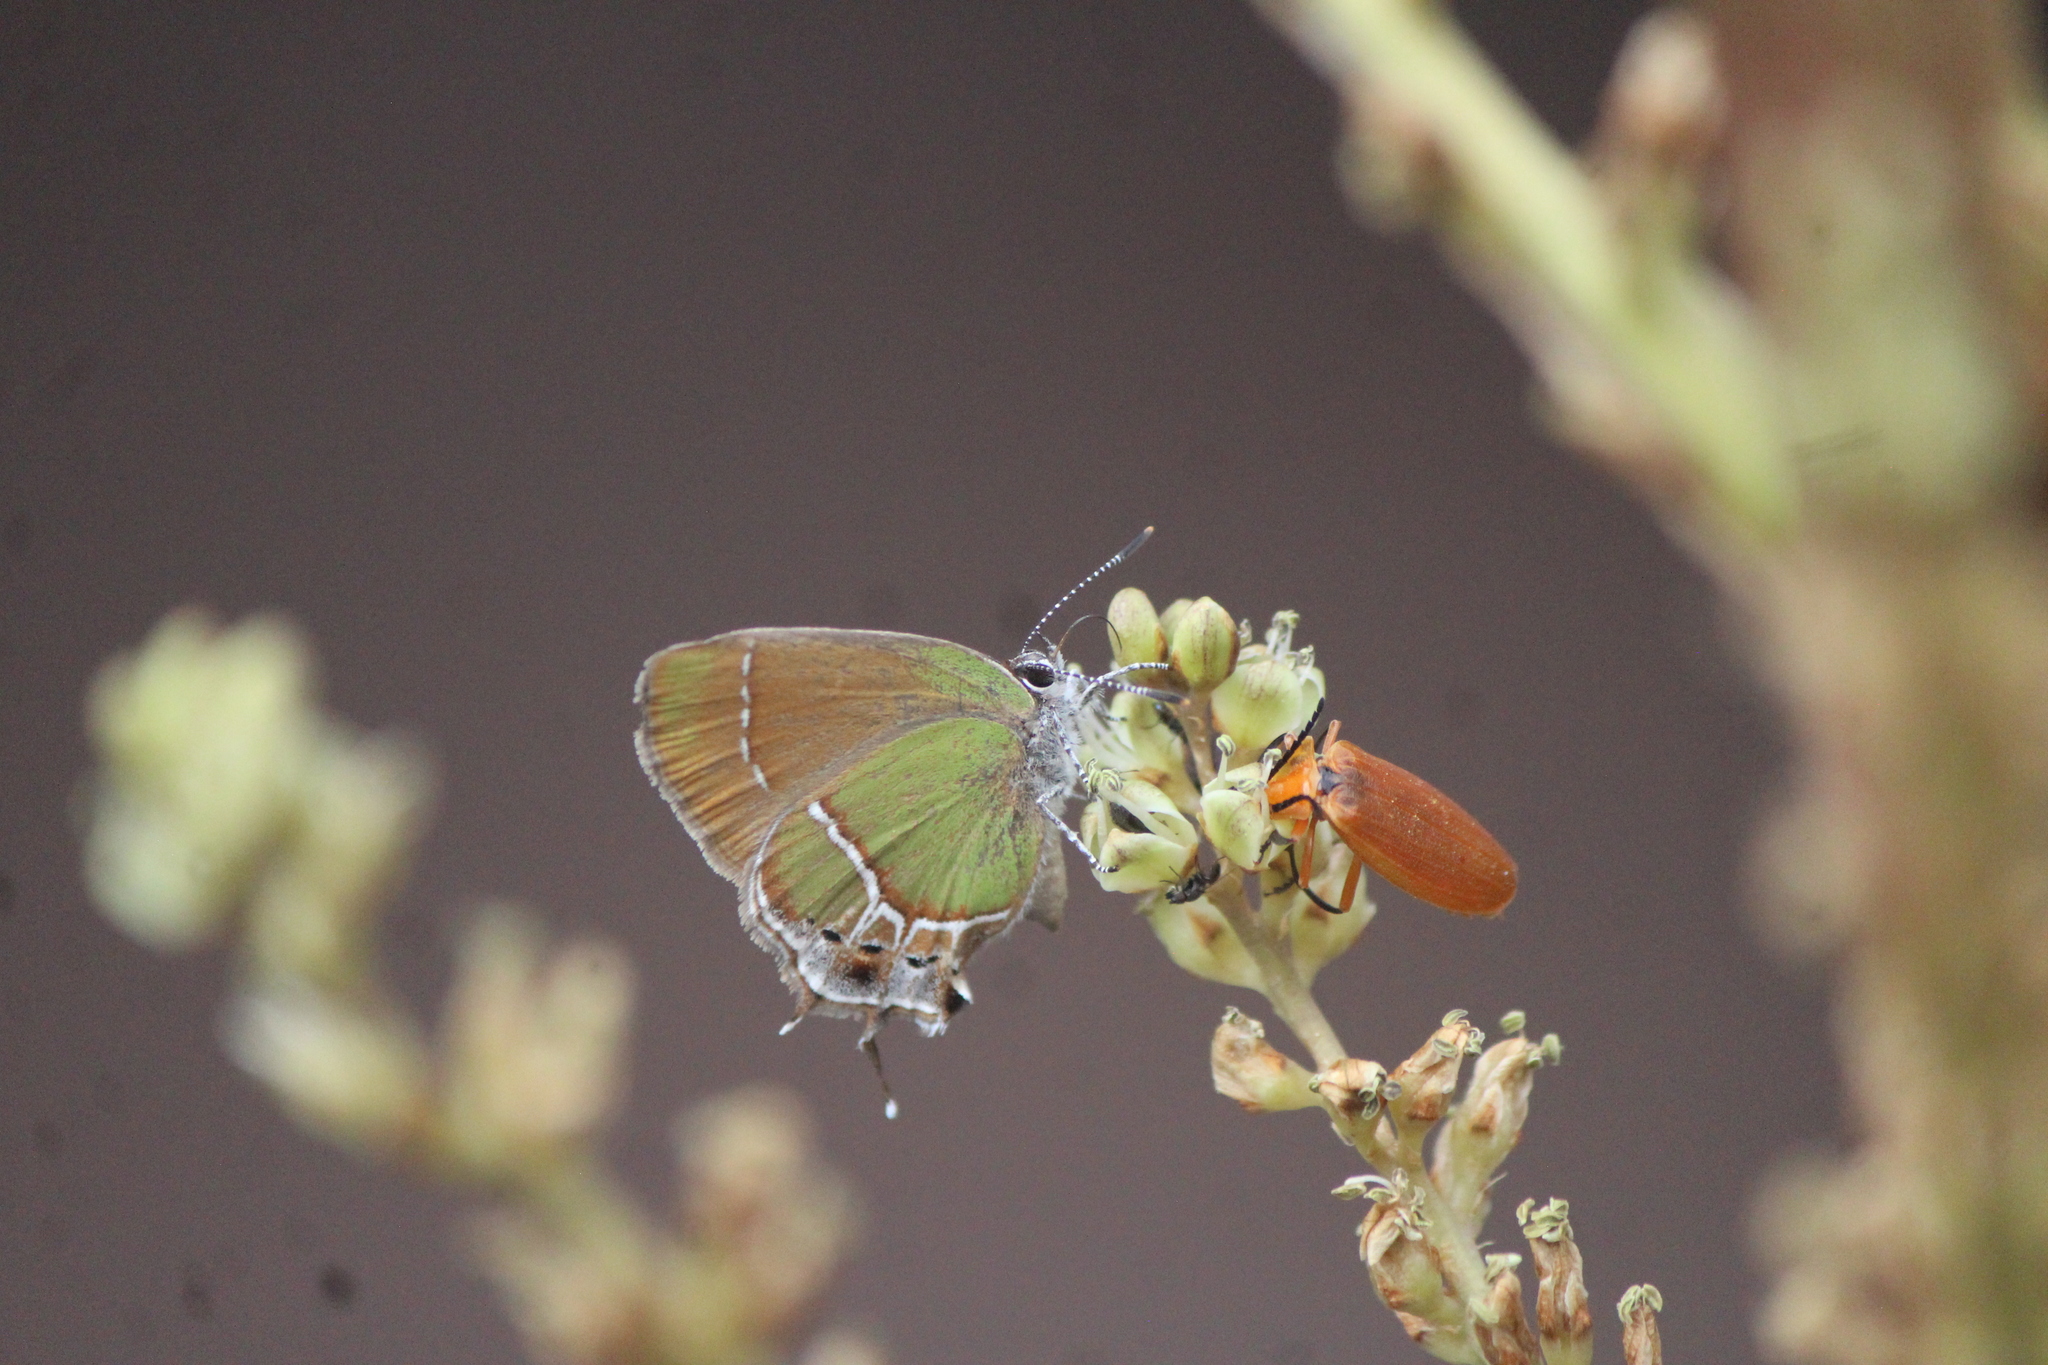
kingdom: Animalia
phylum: Arthropoda
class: Insecta
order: Lepidoptera
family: Lycaenidae
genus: Xamia
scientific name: Xamia xami
